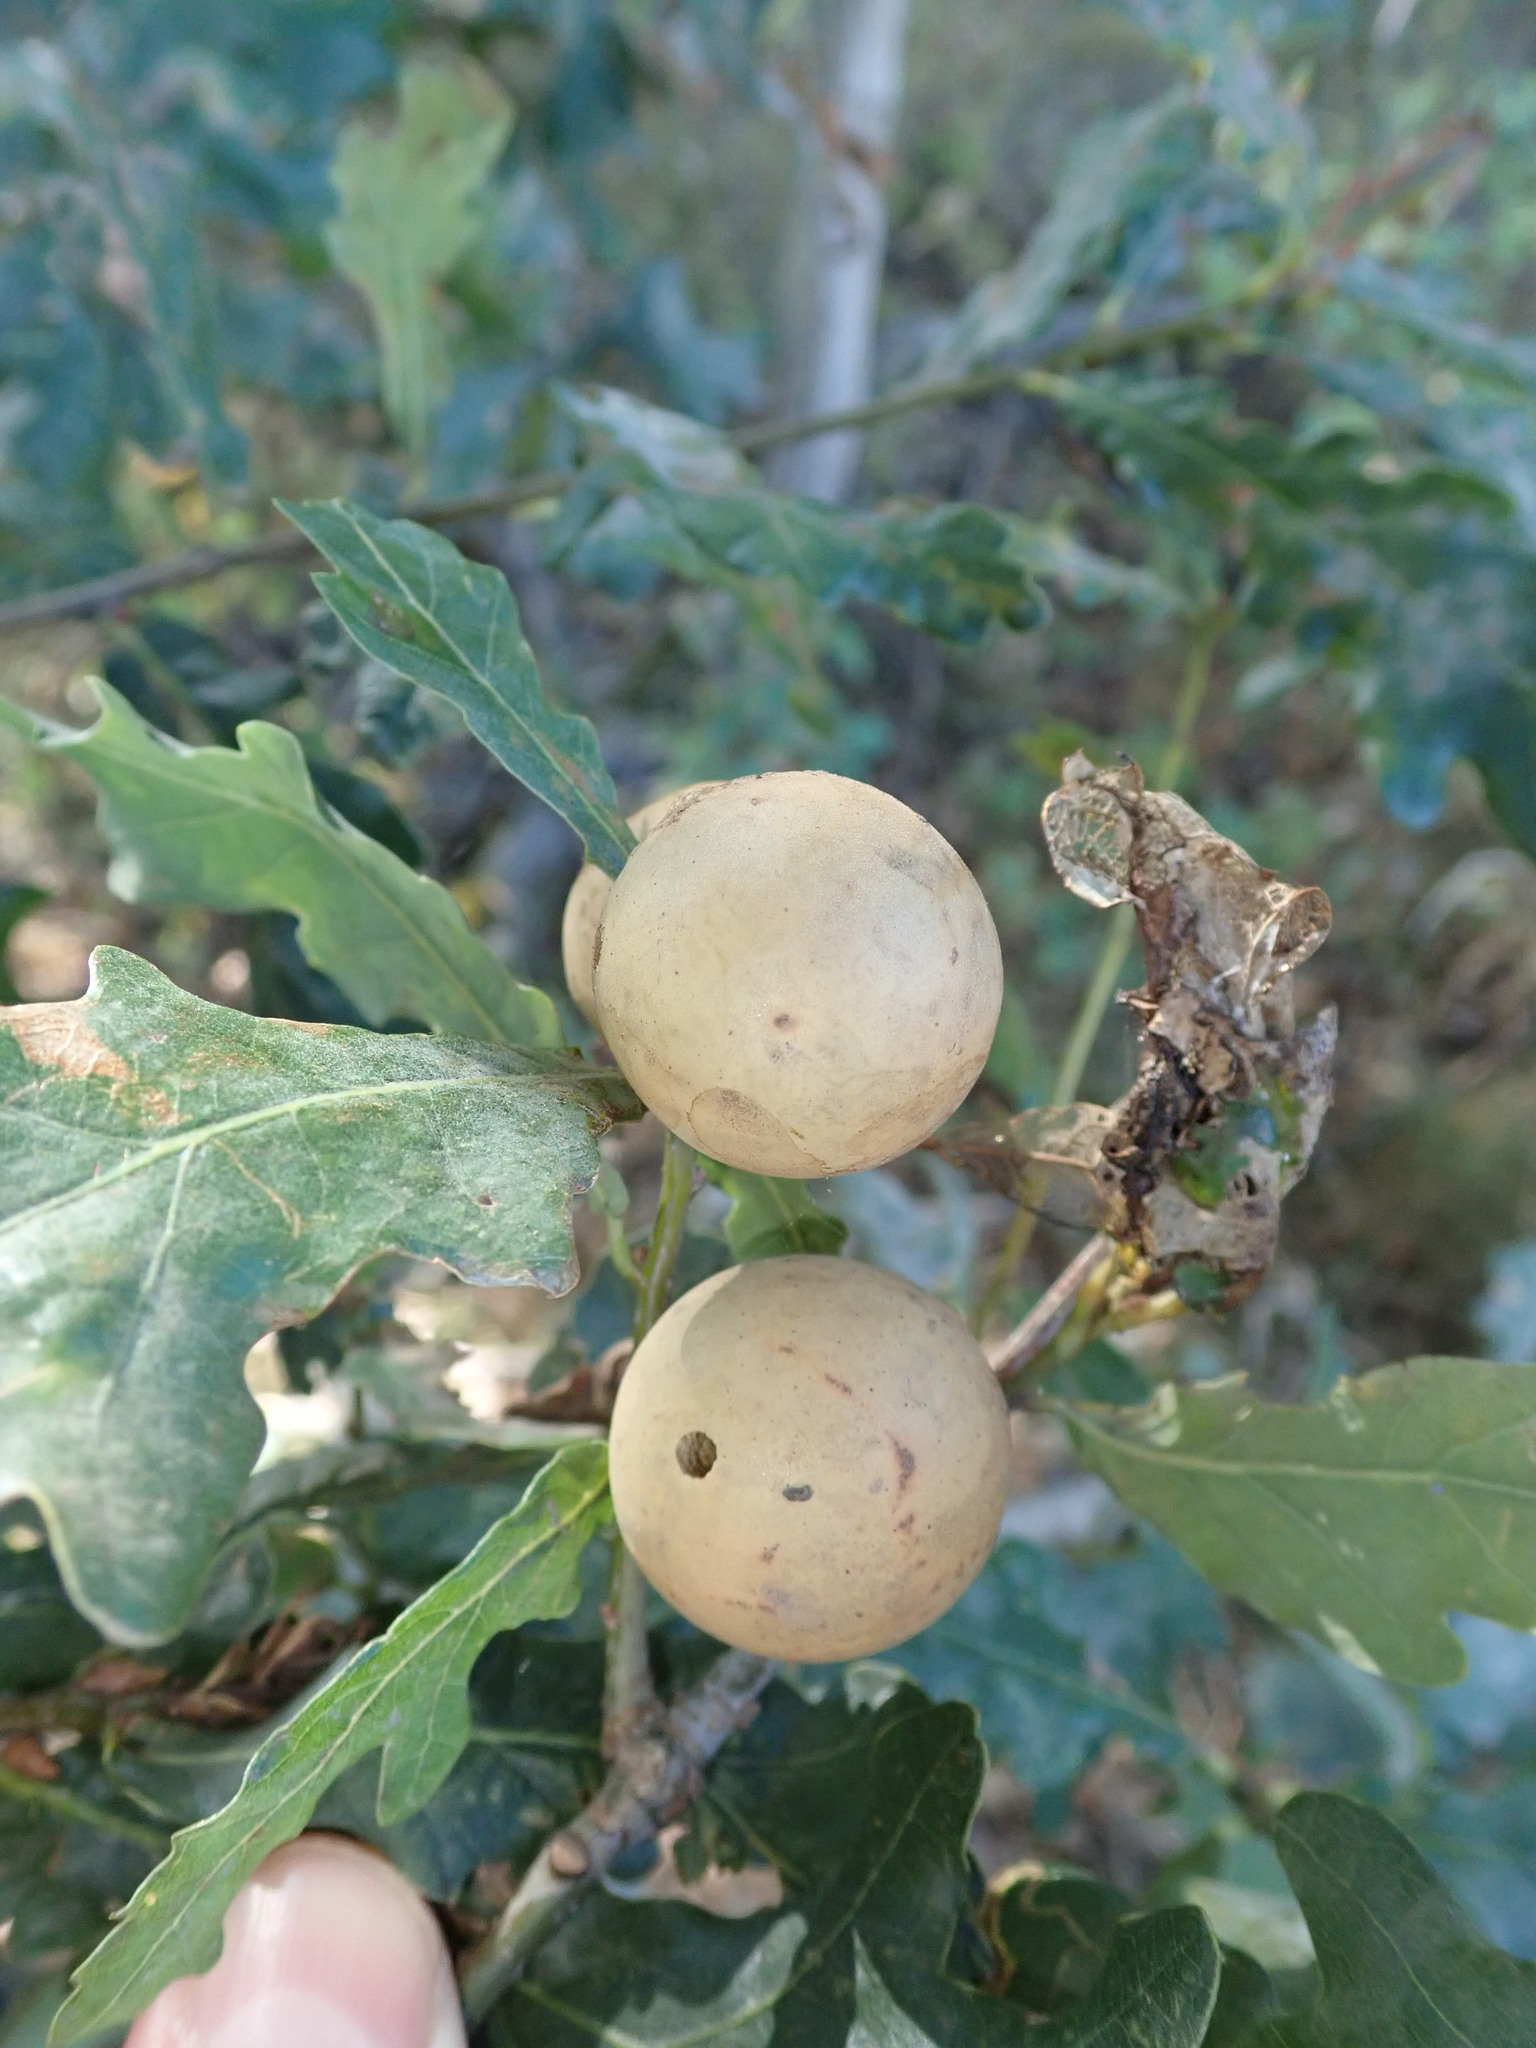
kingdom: Animalia
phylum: Arthropoda
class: Insecta
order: Hymenoptera
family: Cynipidae
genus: Andricus
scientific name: Andricus kollari
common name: Marble gall
